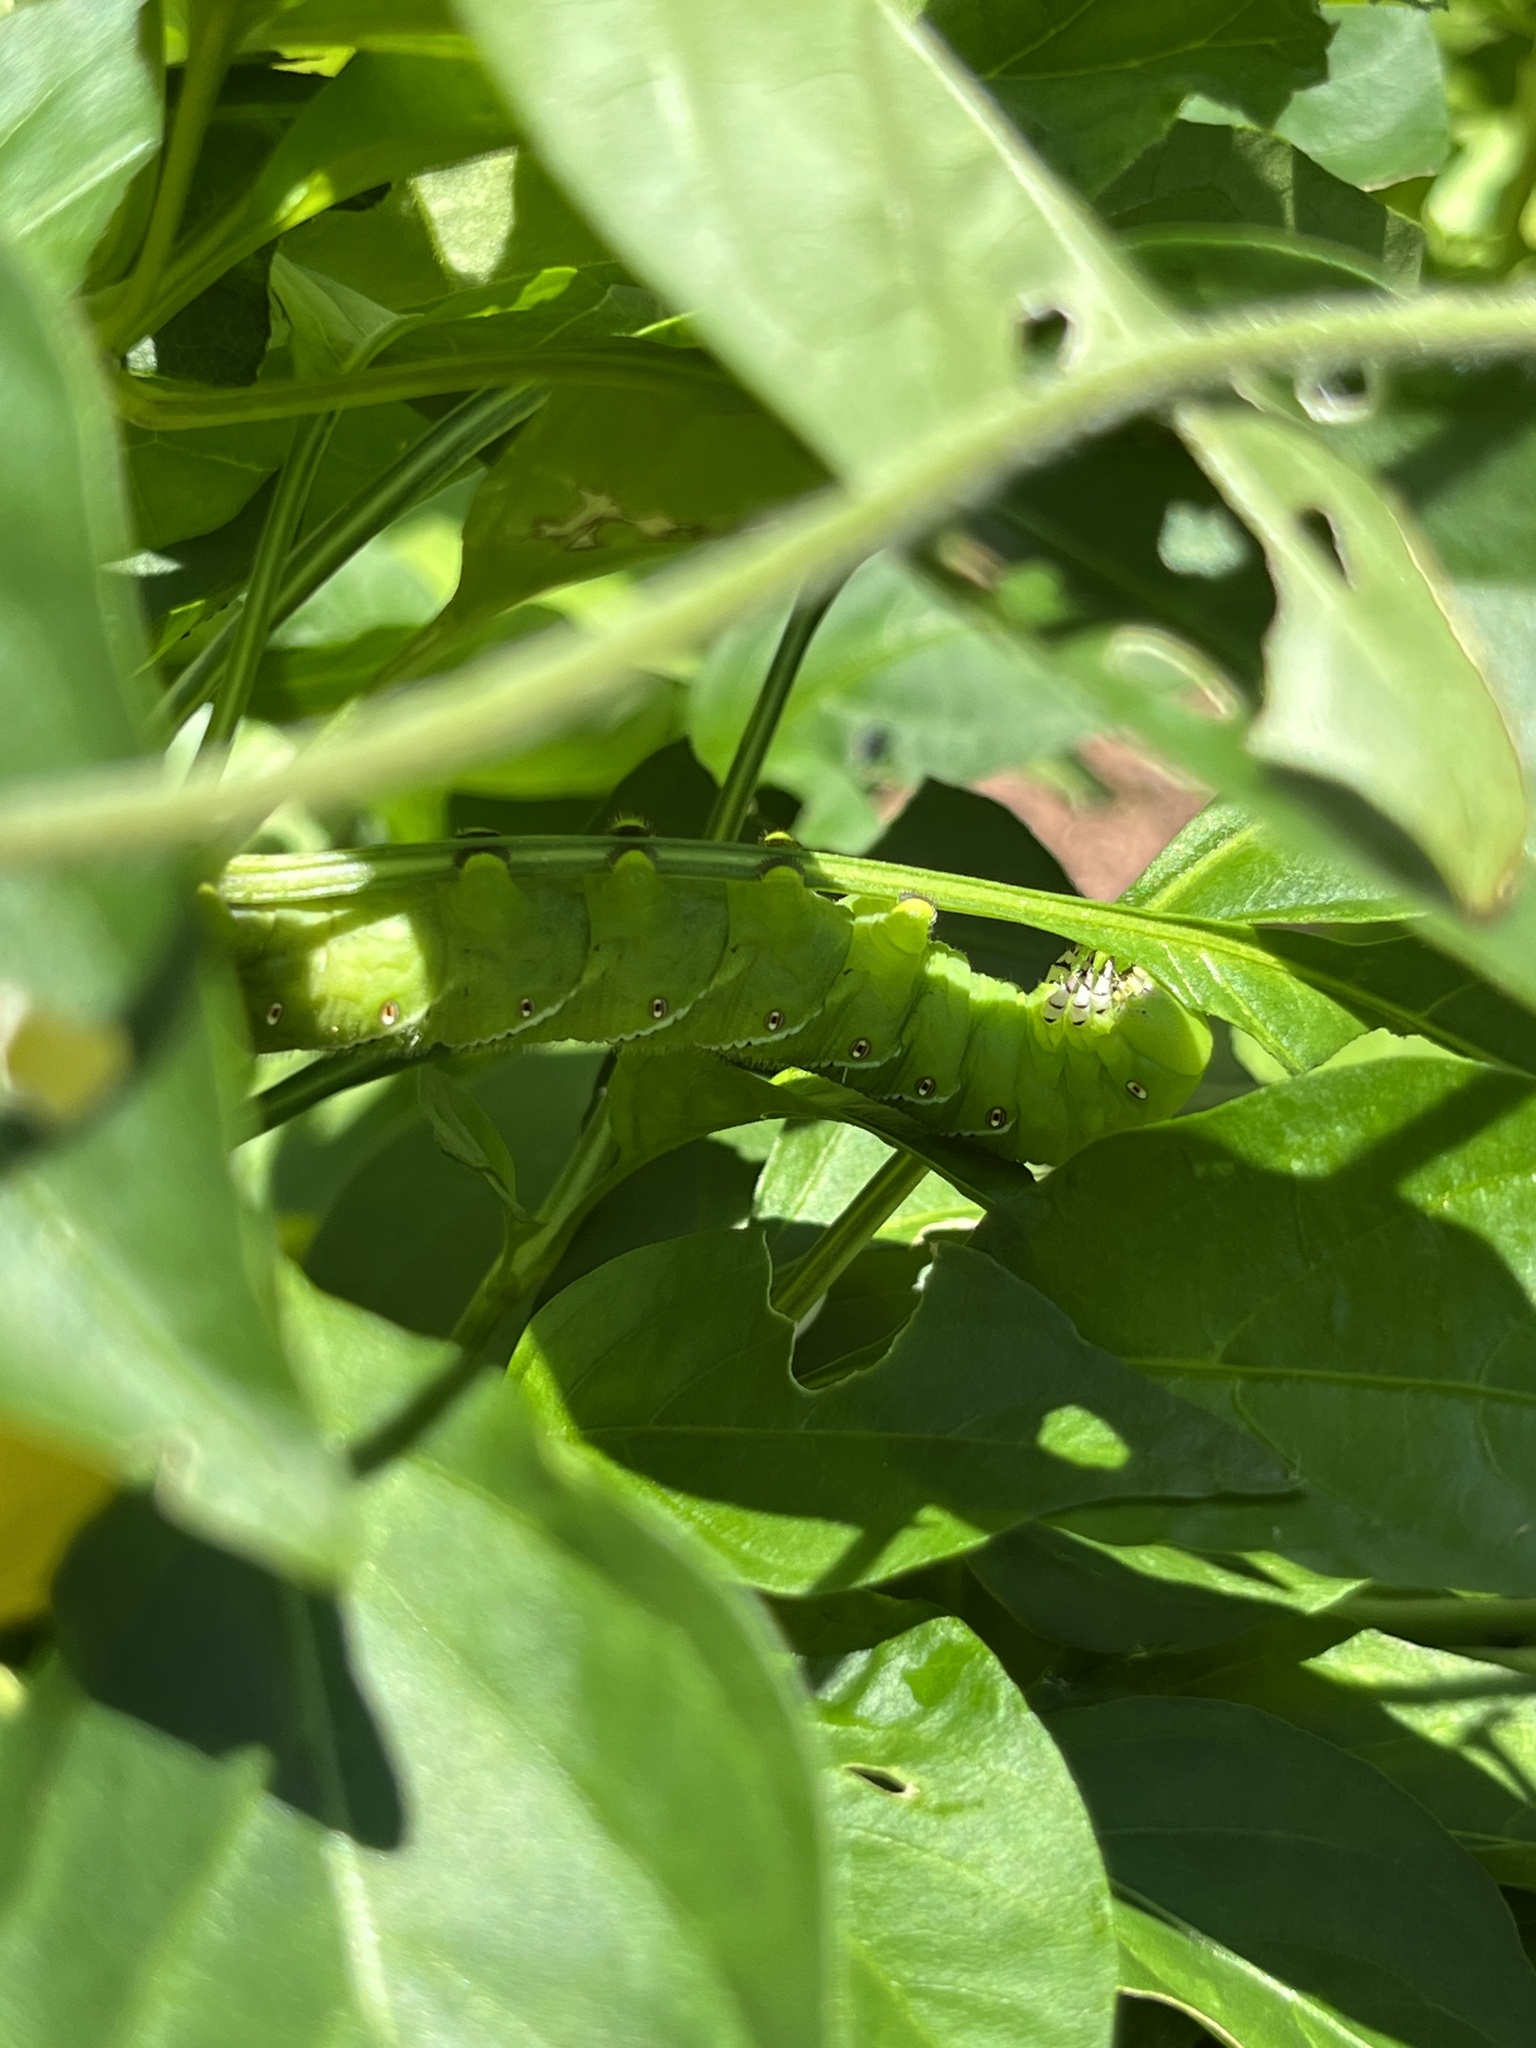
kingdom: Animalia
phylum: Arthropoda
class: Insecta
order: Lepidoptera
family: Sphingidae
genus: Manduca
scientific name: Manduca sexta
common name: Carolina sphinx
